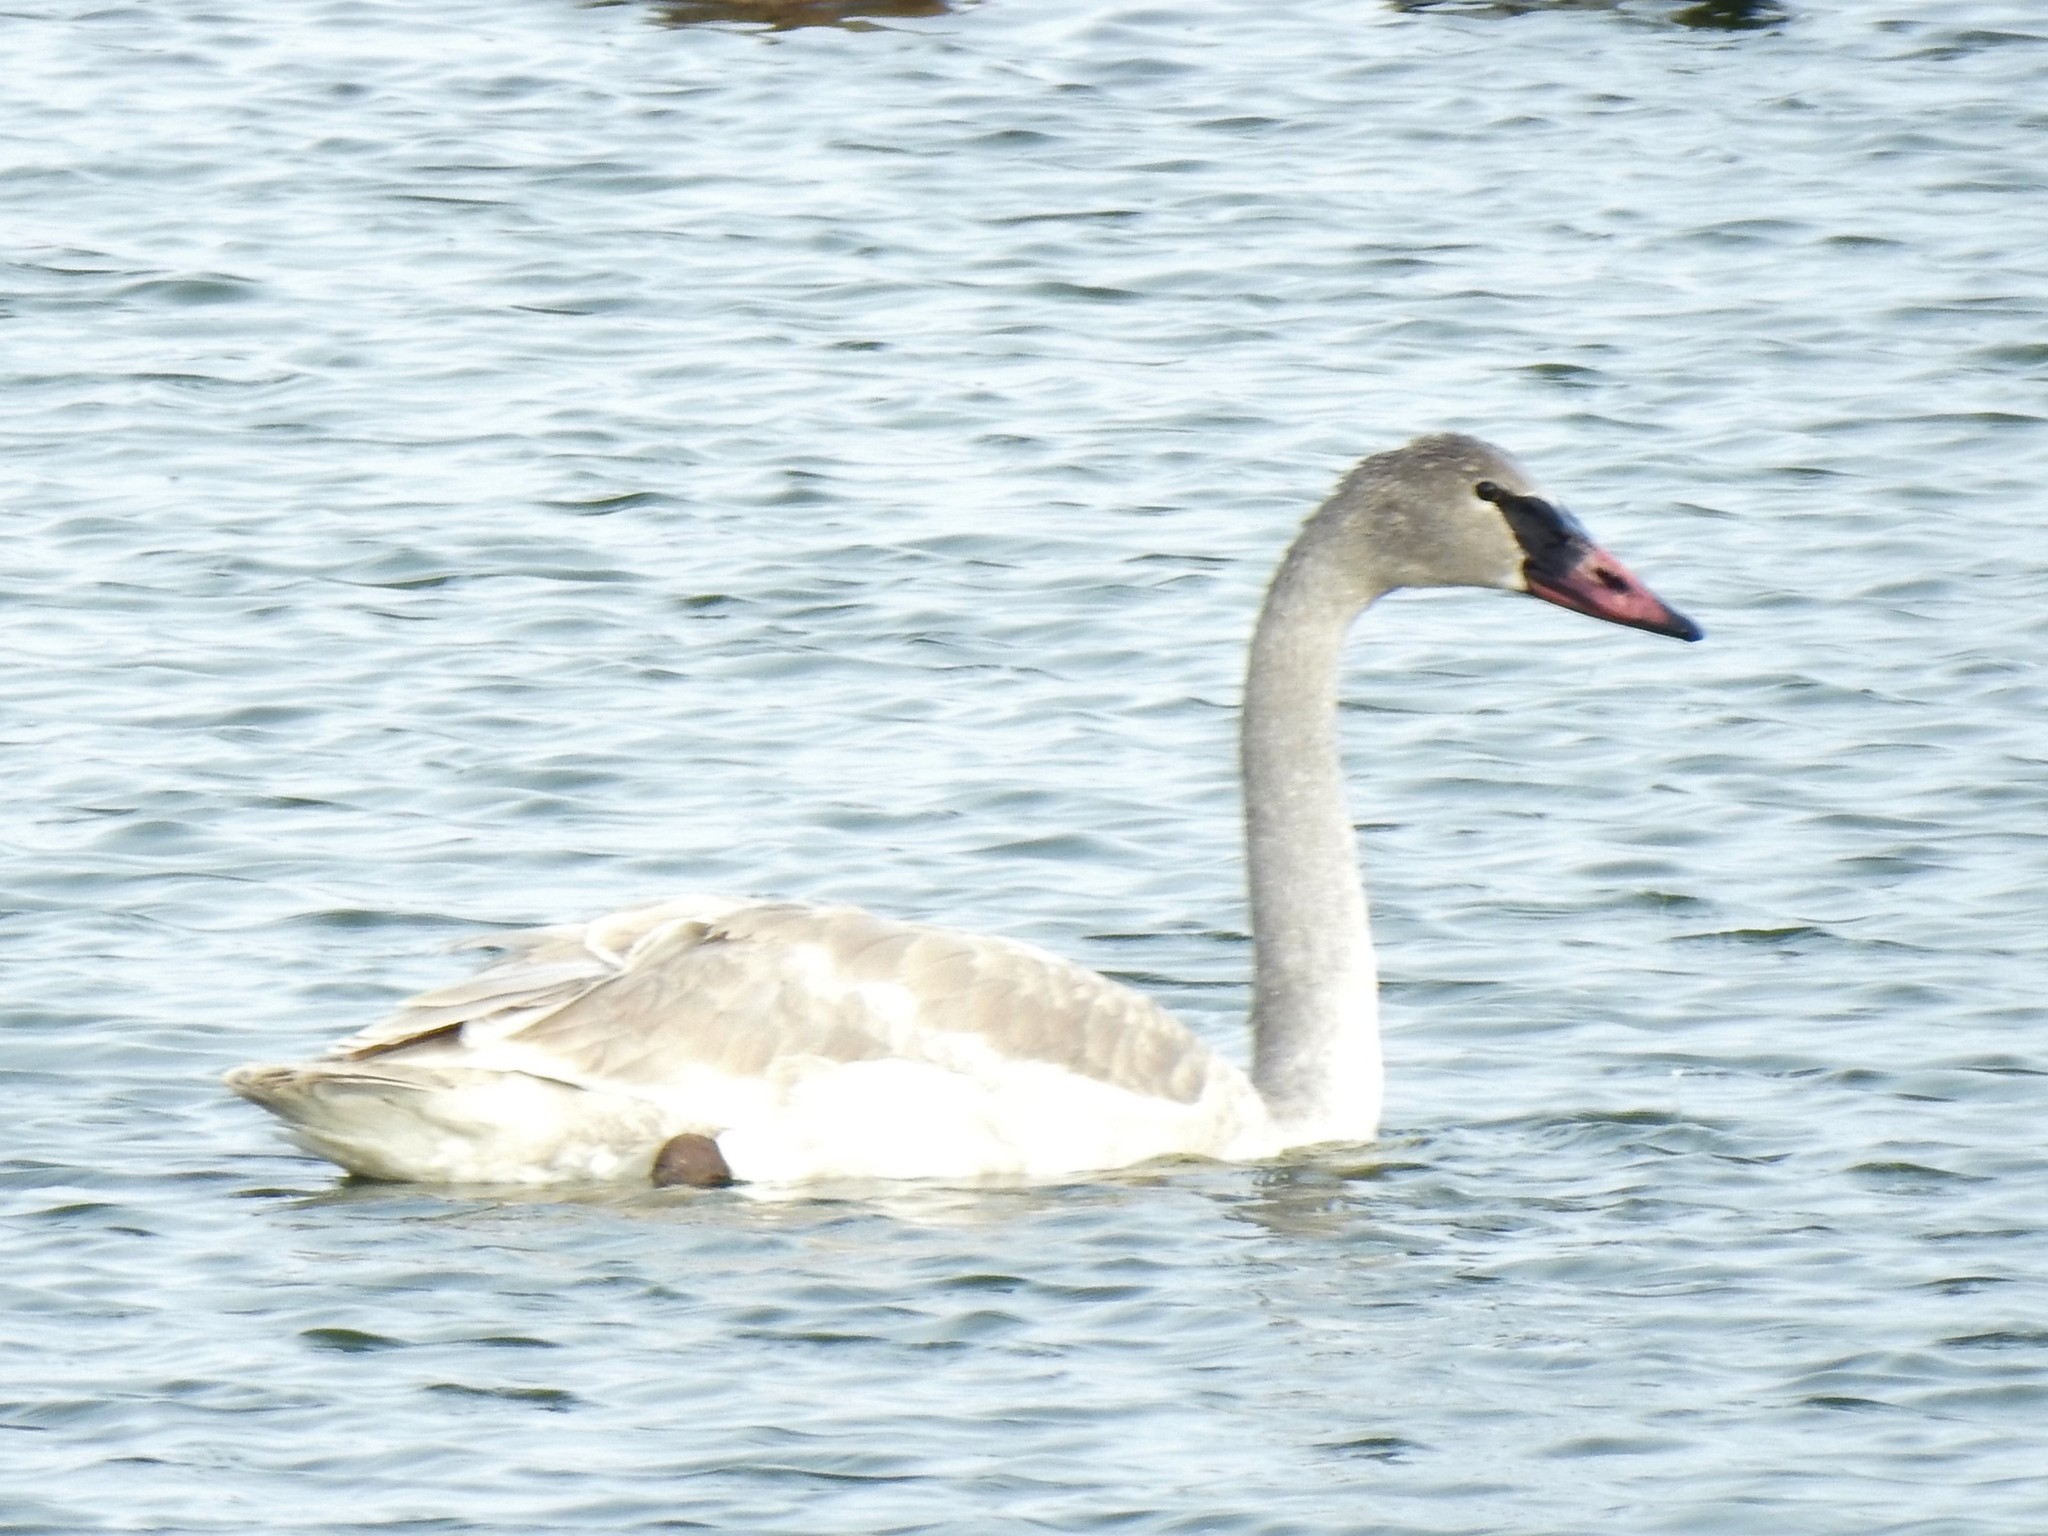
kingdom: Animalia
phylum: Chordata
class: Aves
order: Anseriformes
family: Anatidae
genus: Cygnus
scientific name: Cygnus buccinator
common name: Trumpeter swan
